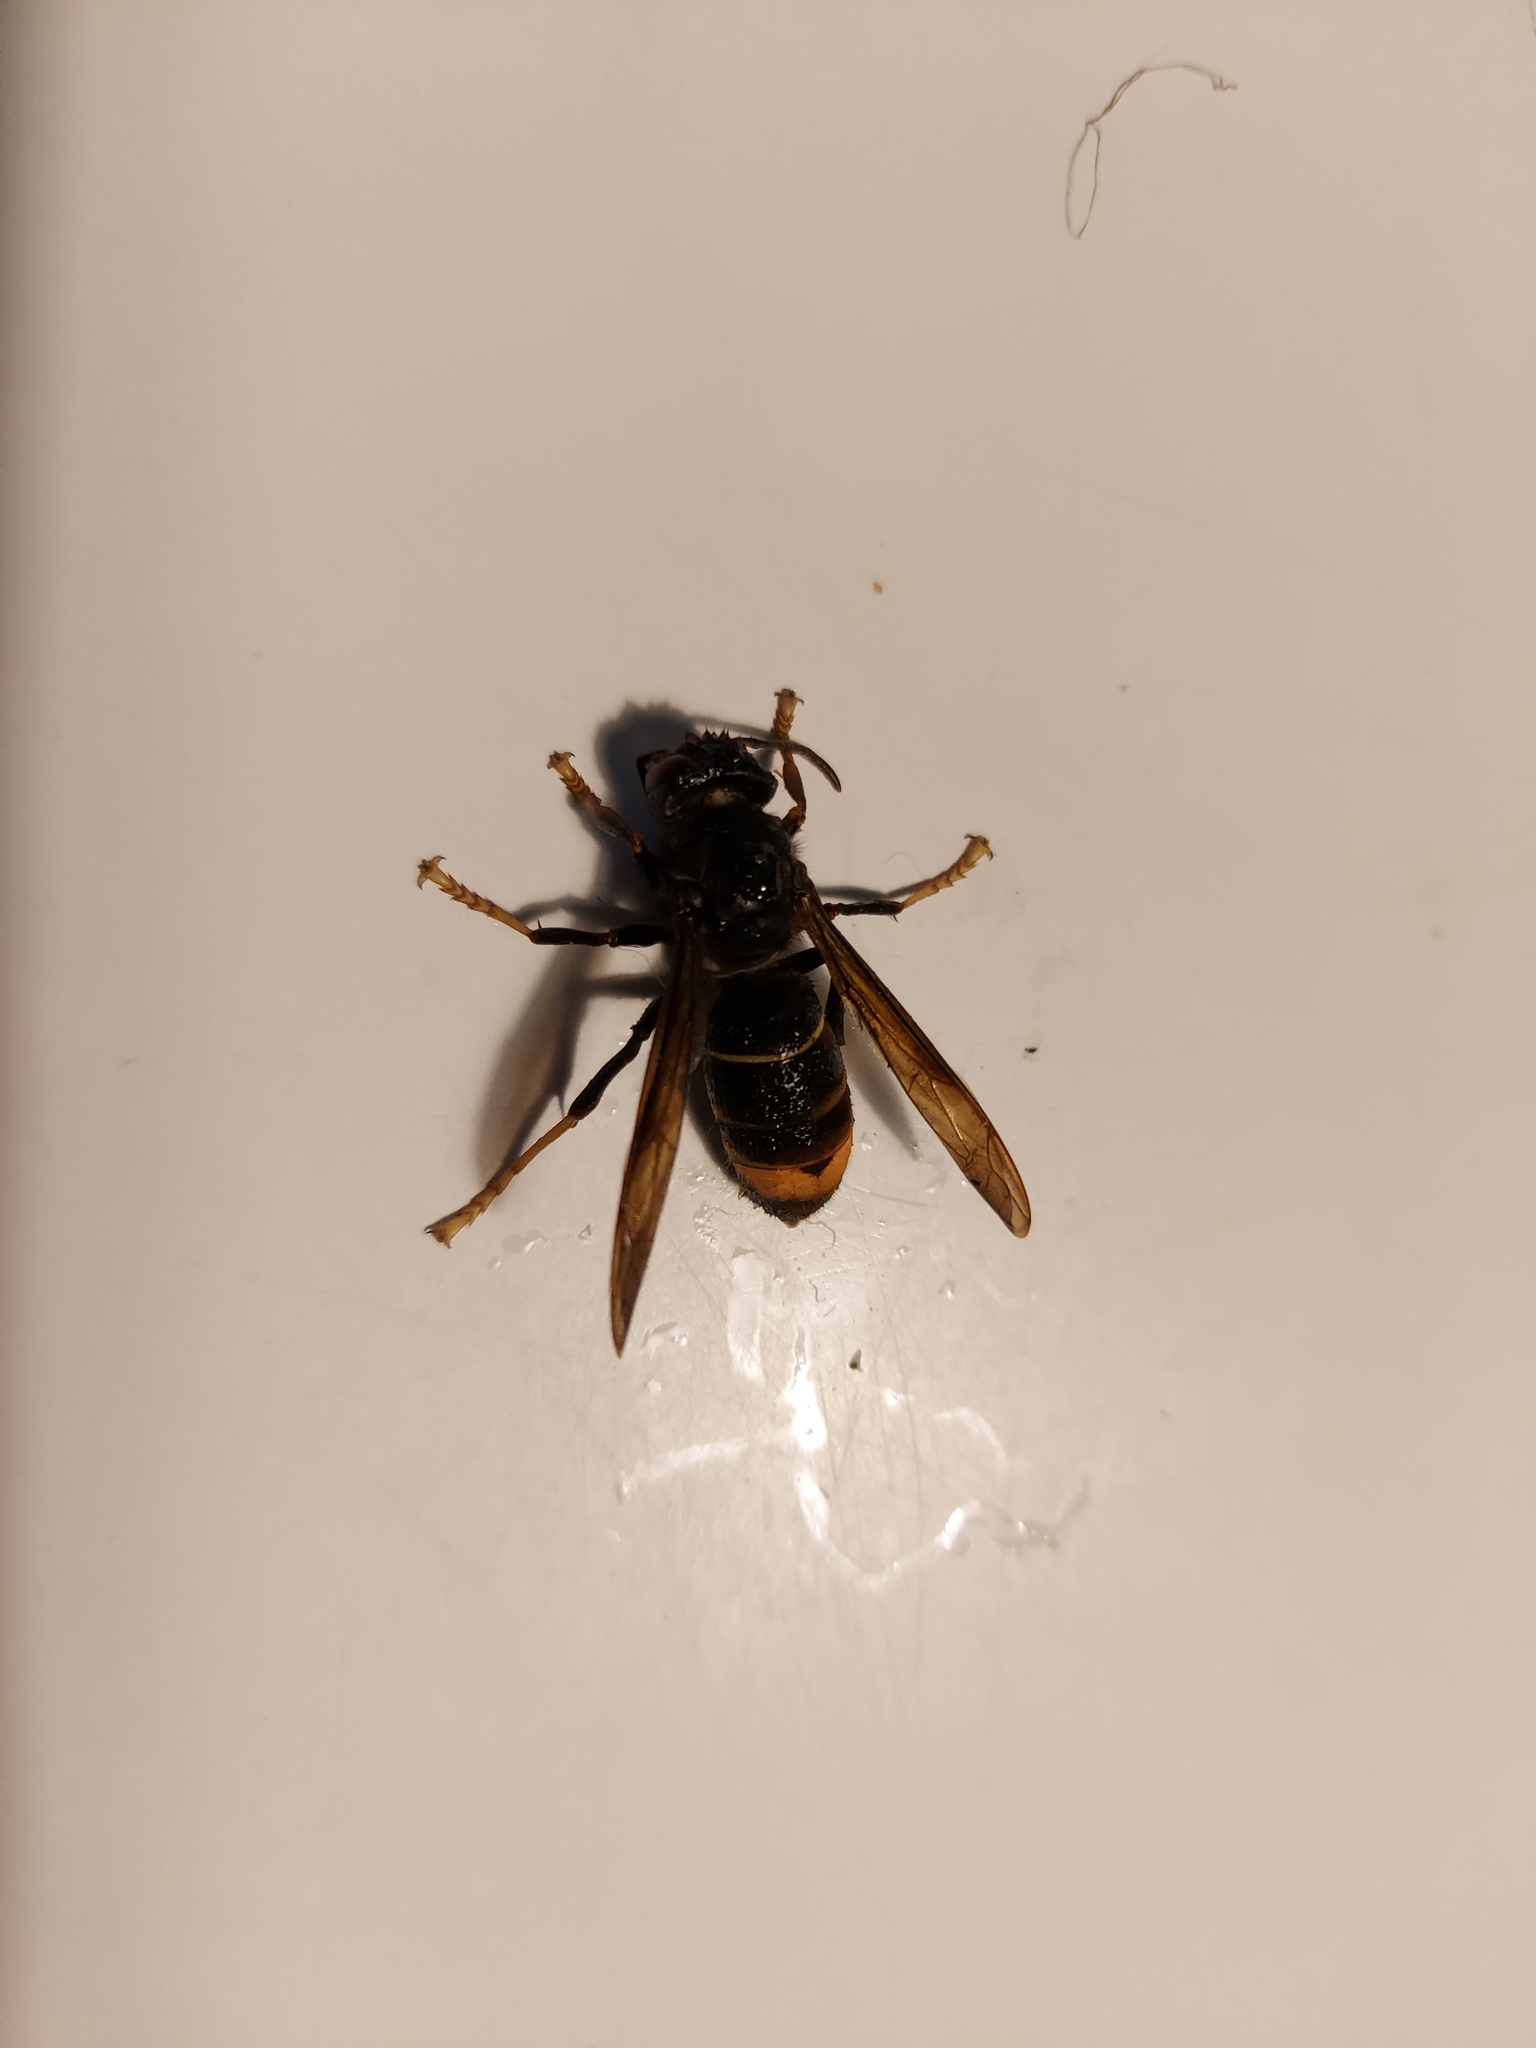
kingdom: Animalia
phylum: Arthropoda
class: Insecta
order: Hymenoptera
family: Vespidae
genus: Vespa
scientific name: Vespa velutina
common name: Asian hornet
